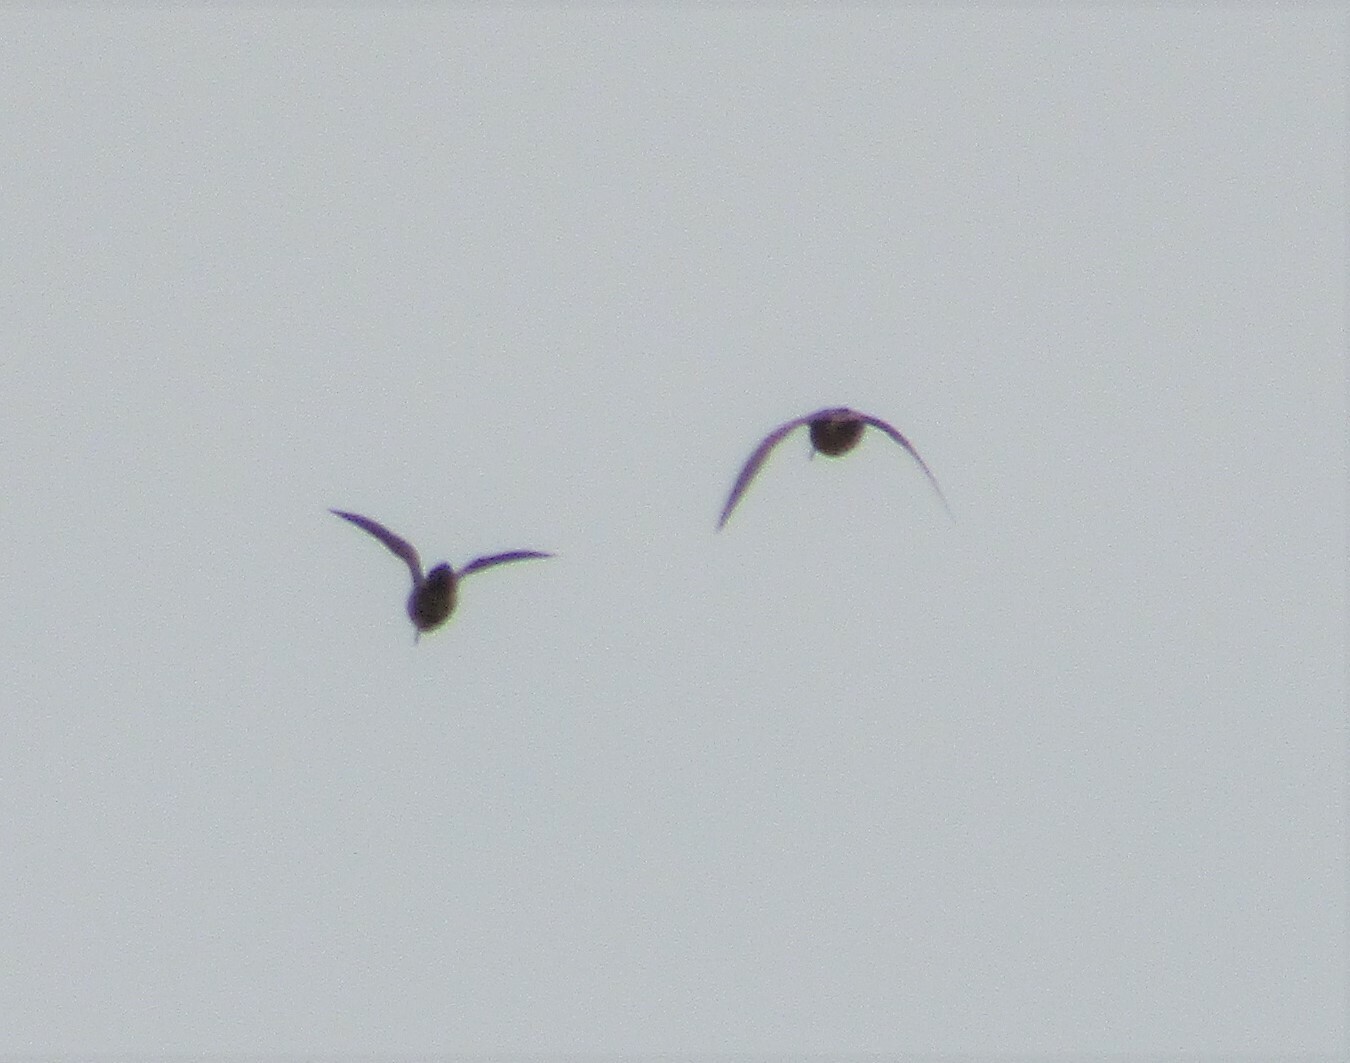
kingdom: Animalia
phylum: Chordata
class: Aves
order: Charadriiformes
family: Scolopacidae
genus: Scolopax
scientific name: Scolopax rusticola
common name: Eurasian woodcock
